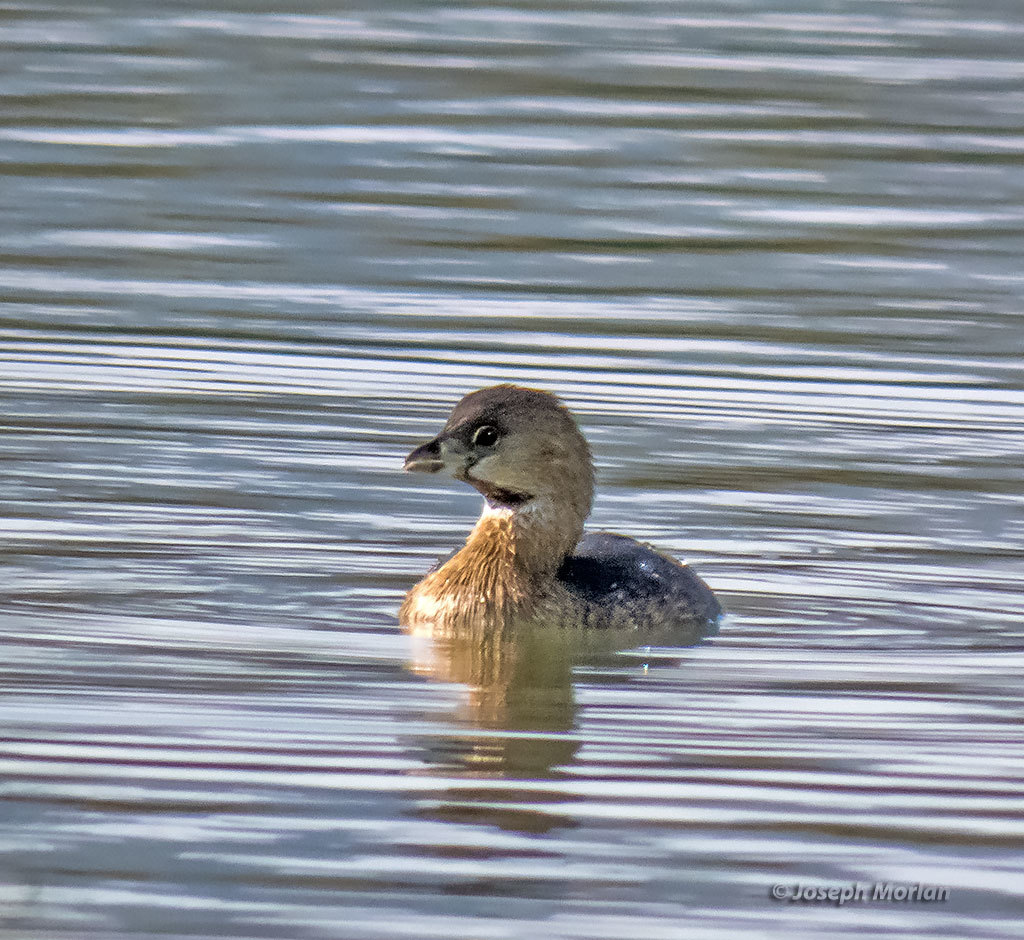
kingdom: Animalia
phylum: Chordata
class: Aves
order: Podicipediformes
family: Podicipedidae
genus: Podilymbus
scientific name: Podilymbus podiceps
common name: Pied-billed grebe
